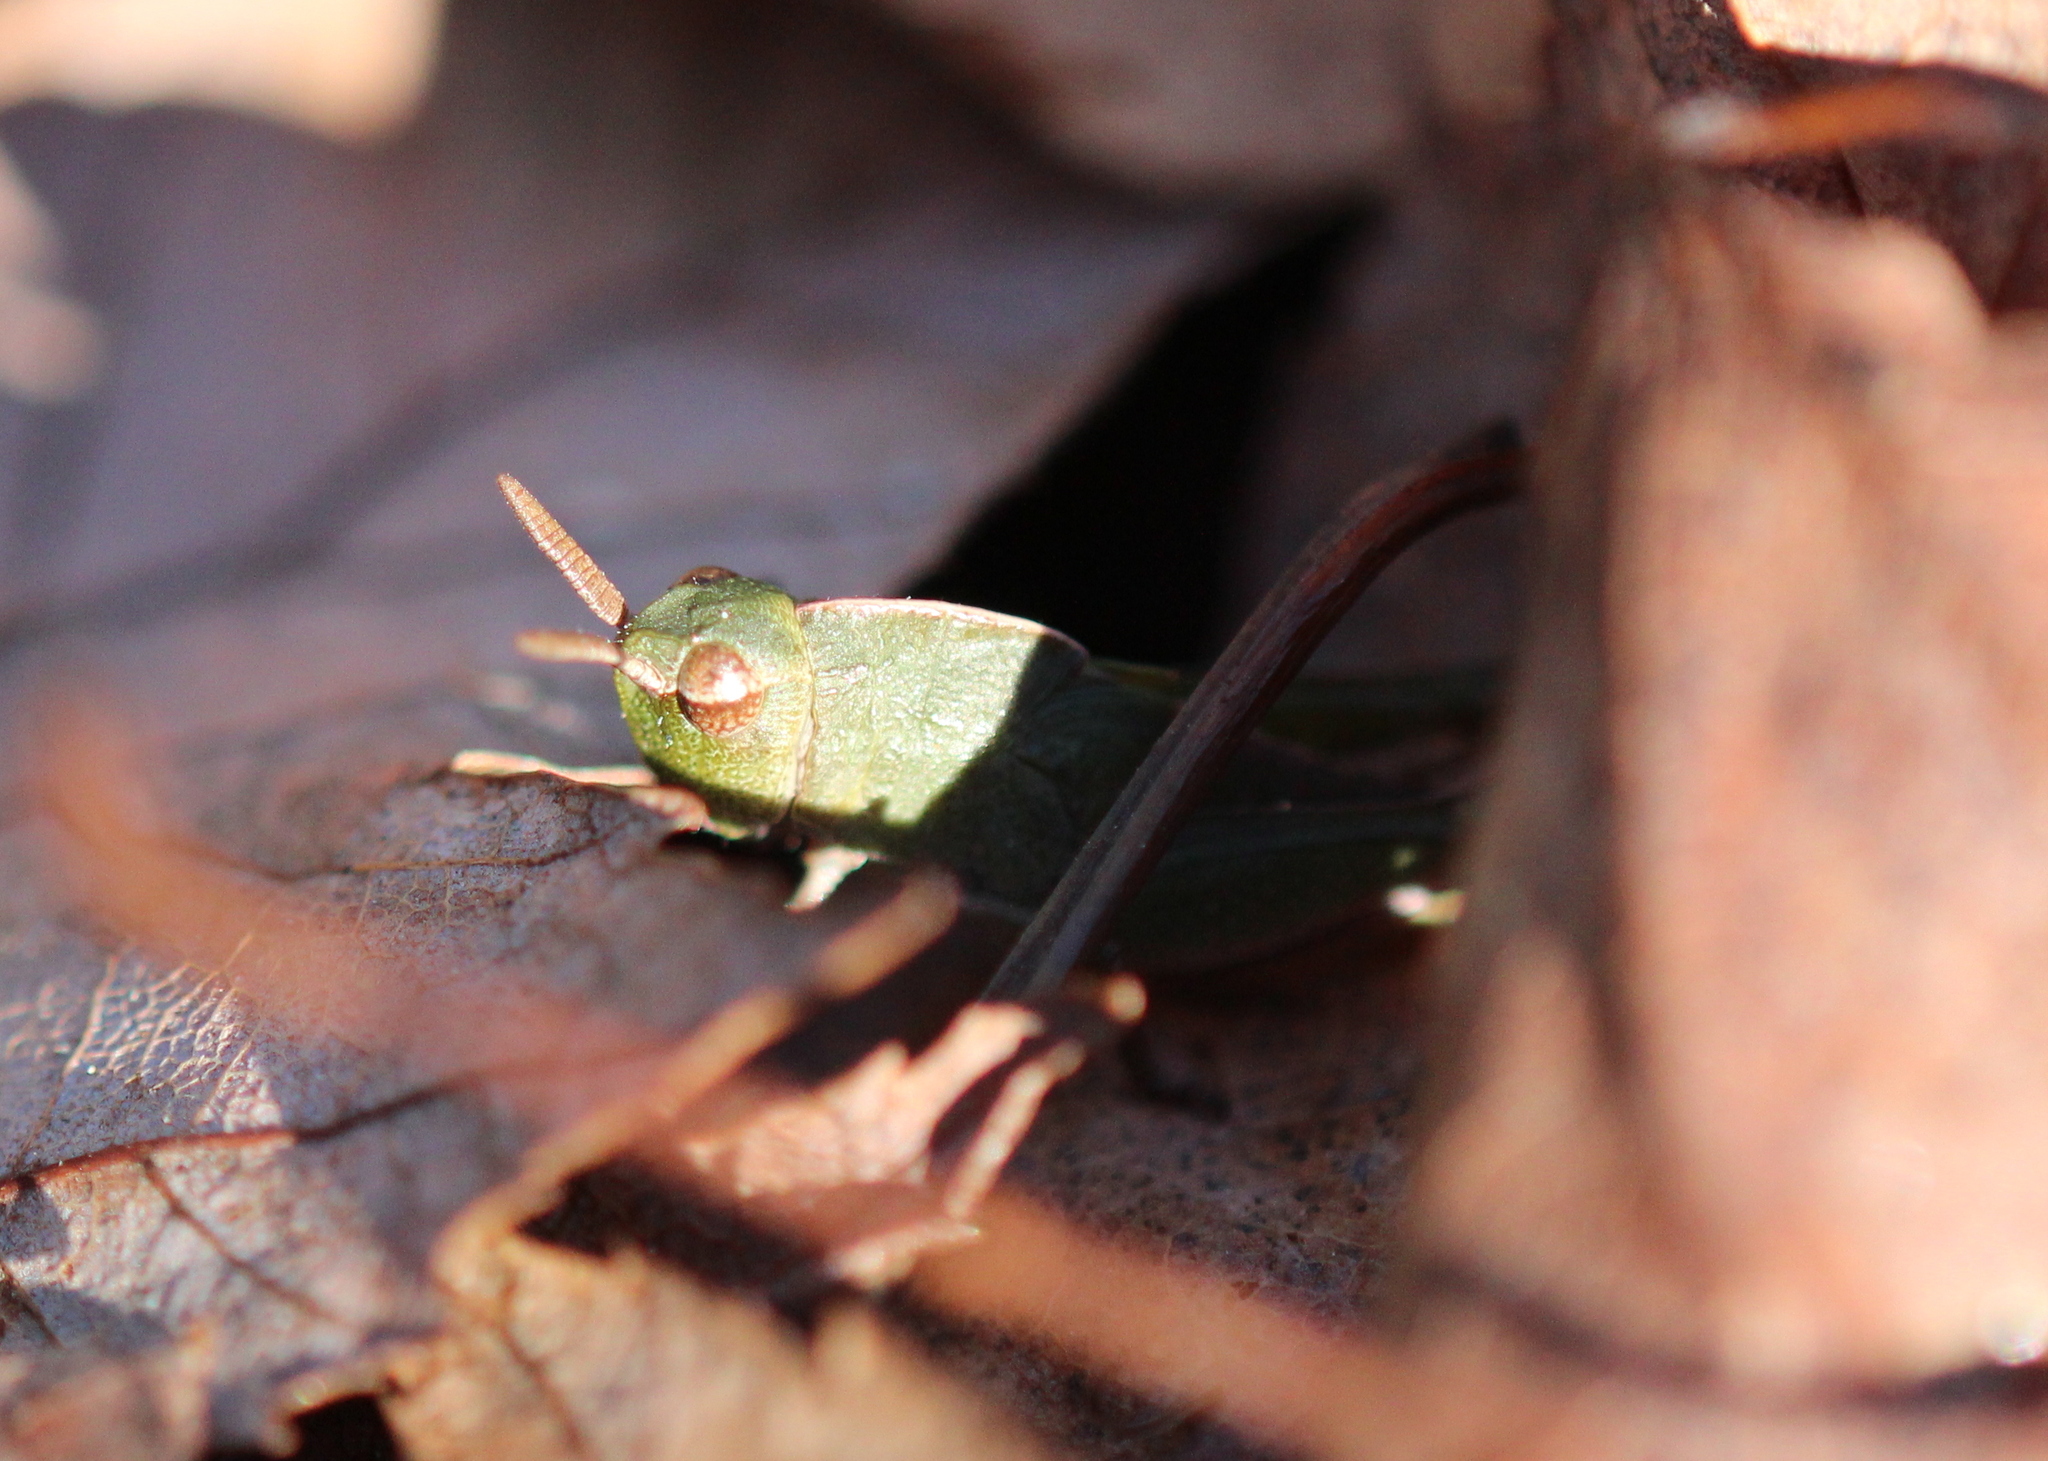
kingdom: Animalia
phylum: Arthropoda
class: Insecta
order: Orthoptera
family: Acrididae
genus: Chortophaga
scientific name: Chortophaga viridifasciata
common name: Green-striped grasshopper
